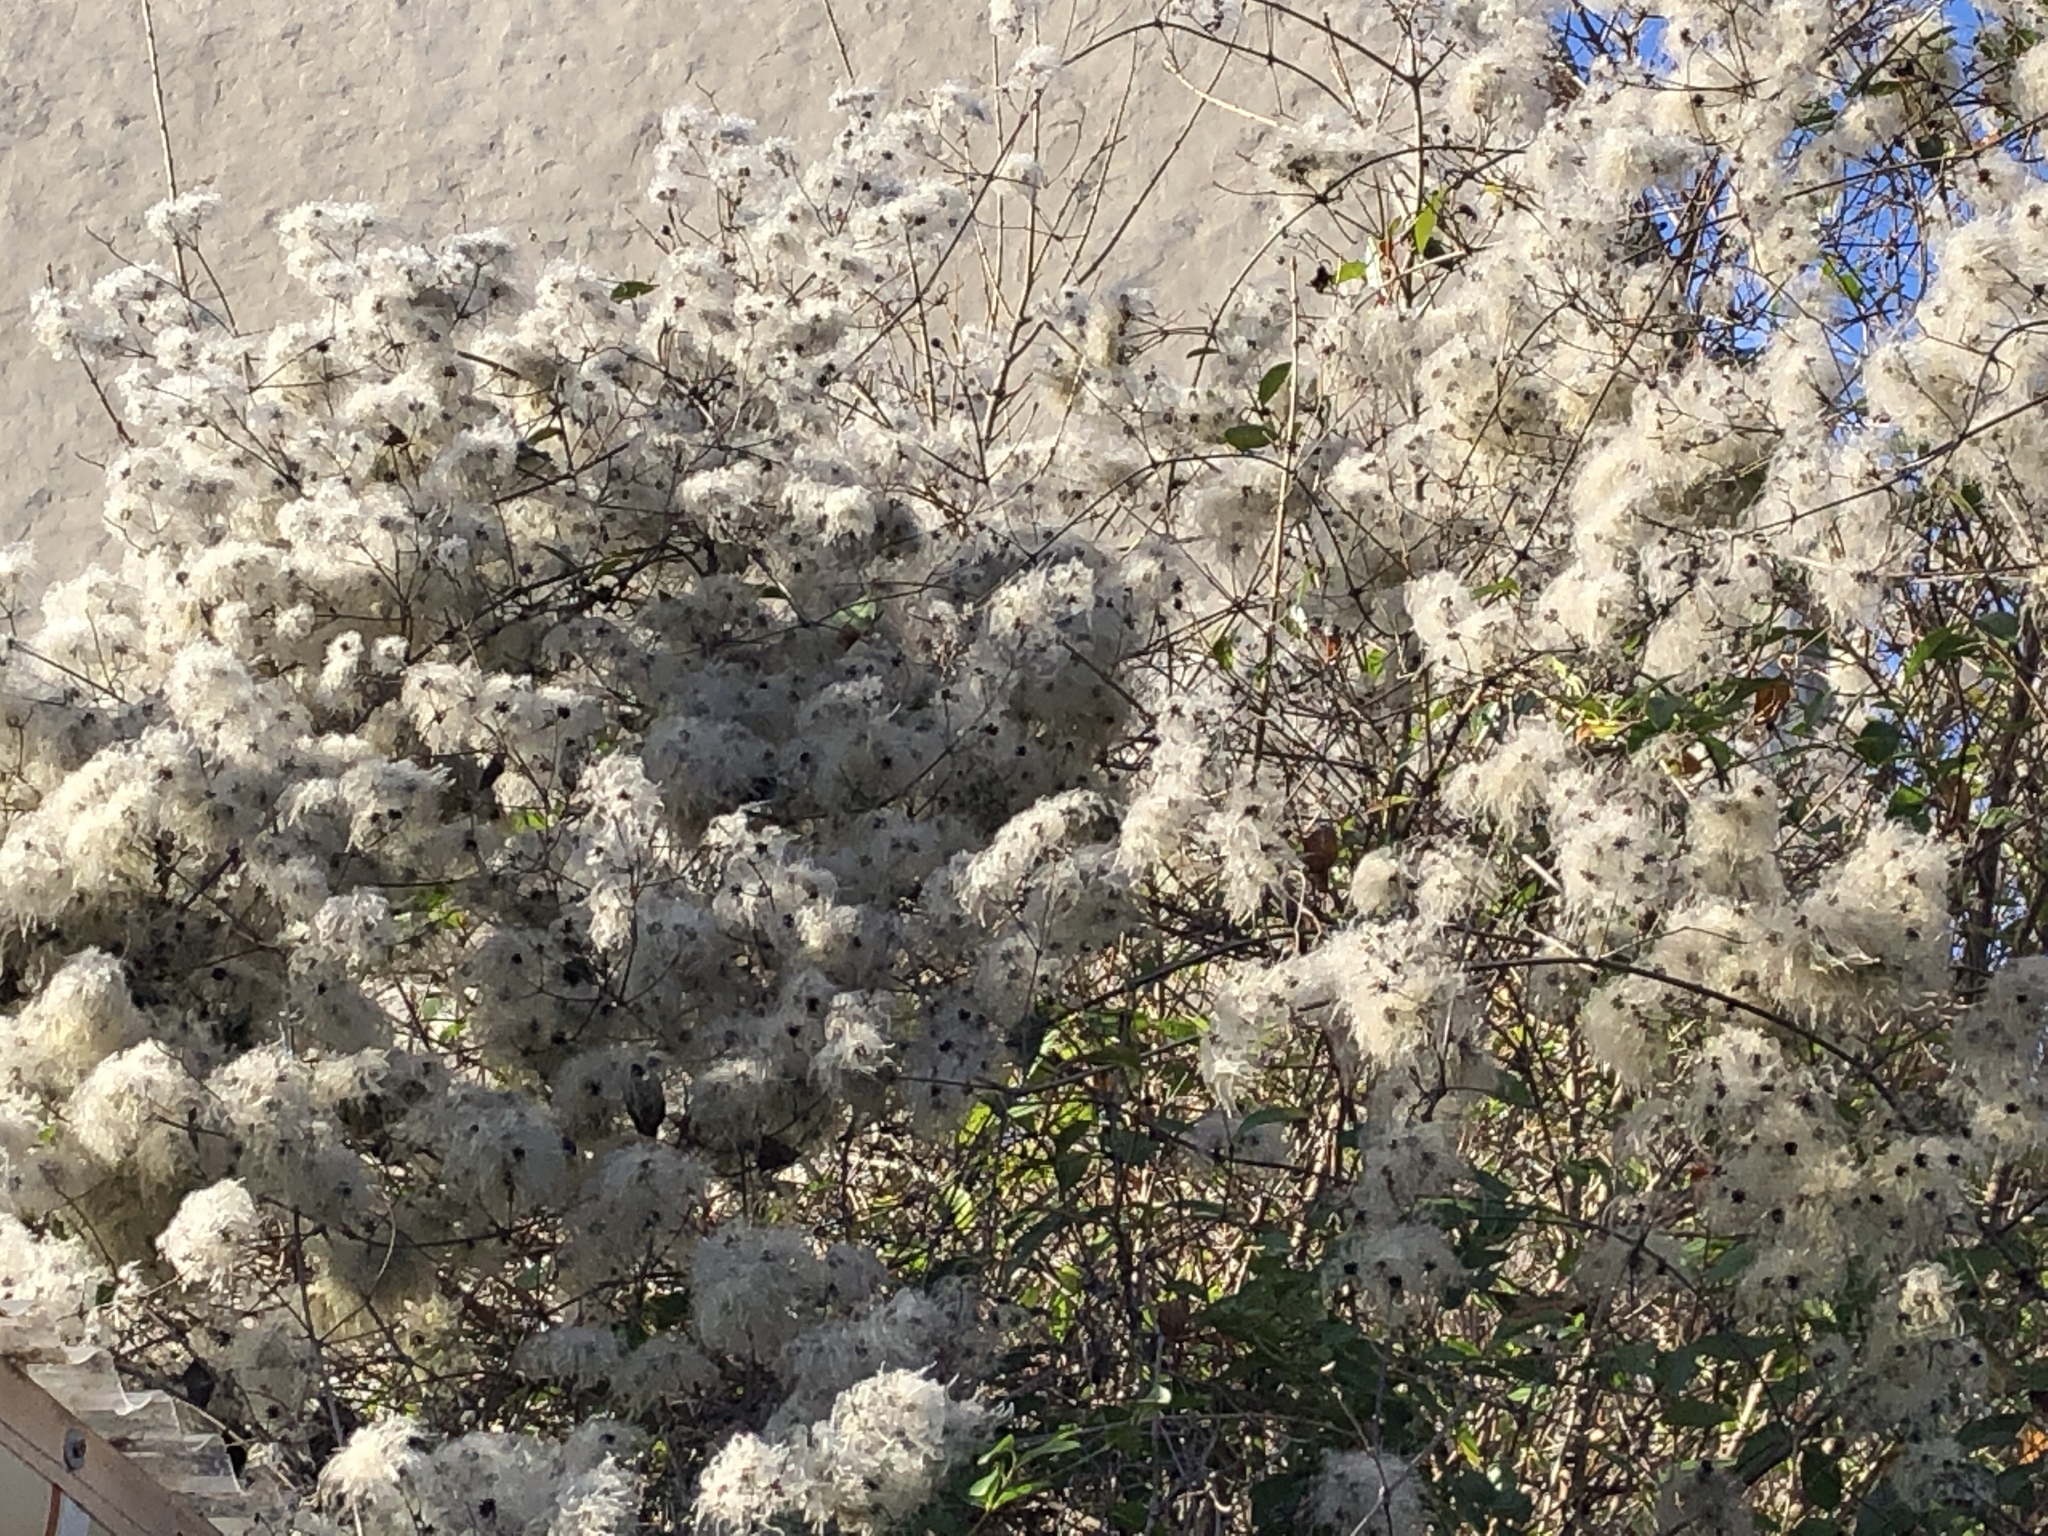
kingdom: Plantae
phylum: Tracheophyta
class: Magnoliopsida
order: Ranunculales
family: Ranunculaceae
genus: Clematis
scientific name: Clematis vitalba
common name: Evergreen clematis
